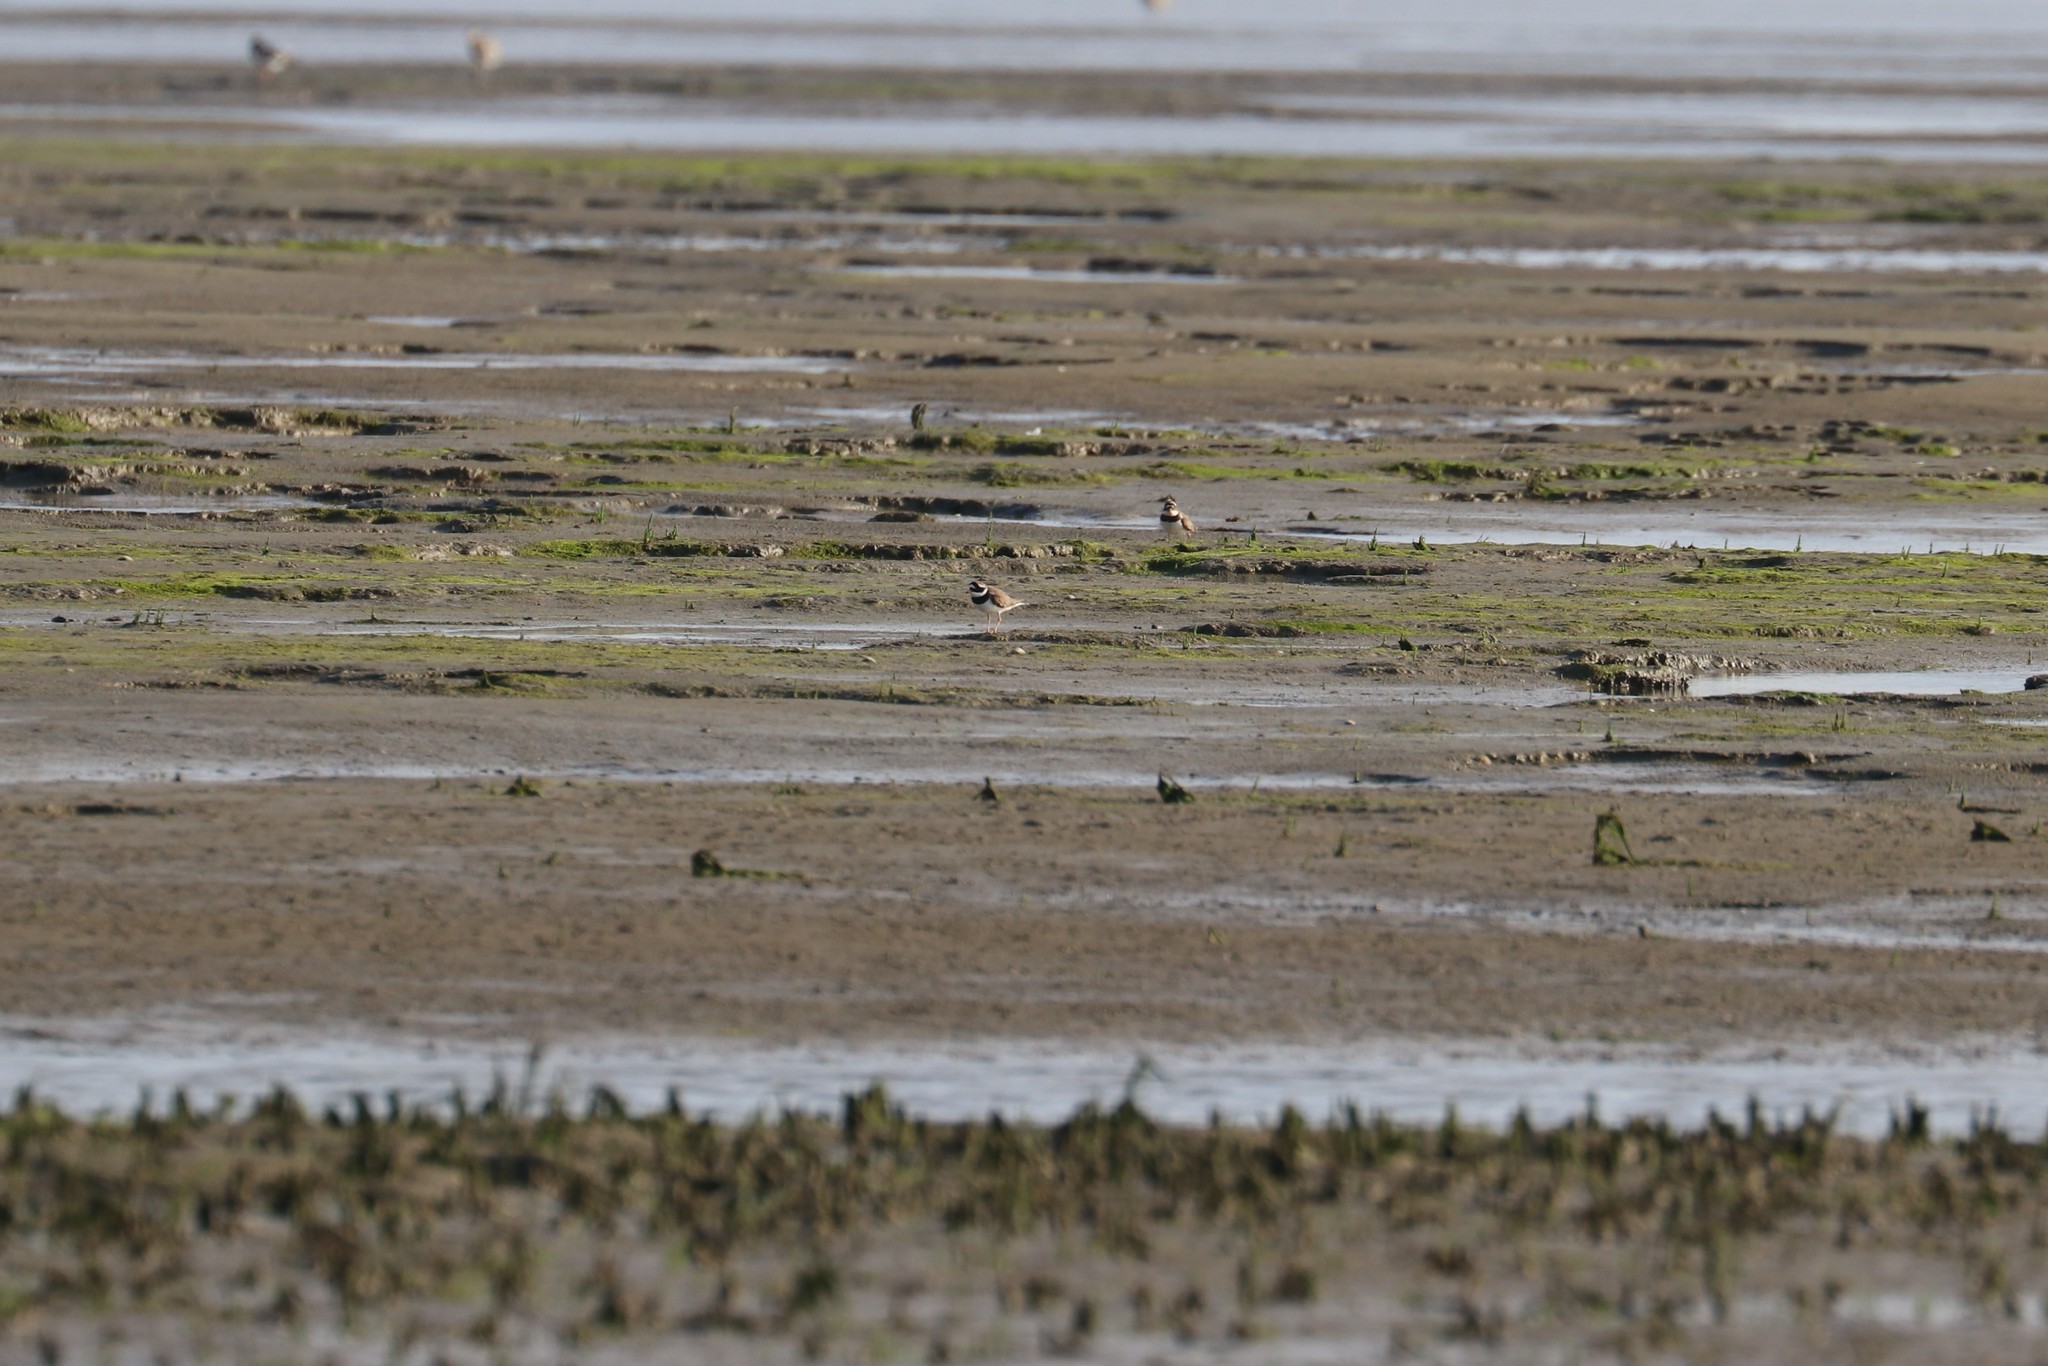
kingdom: Animalia
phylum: Chordata
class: Aves
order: Charadriiformes
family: Charadriidae
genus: Charadrius
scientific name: Charadrius hiaticula
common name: Common ringed plover
